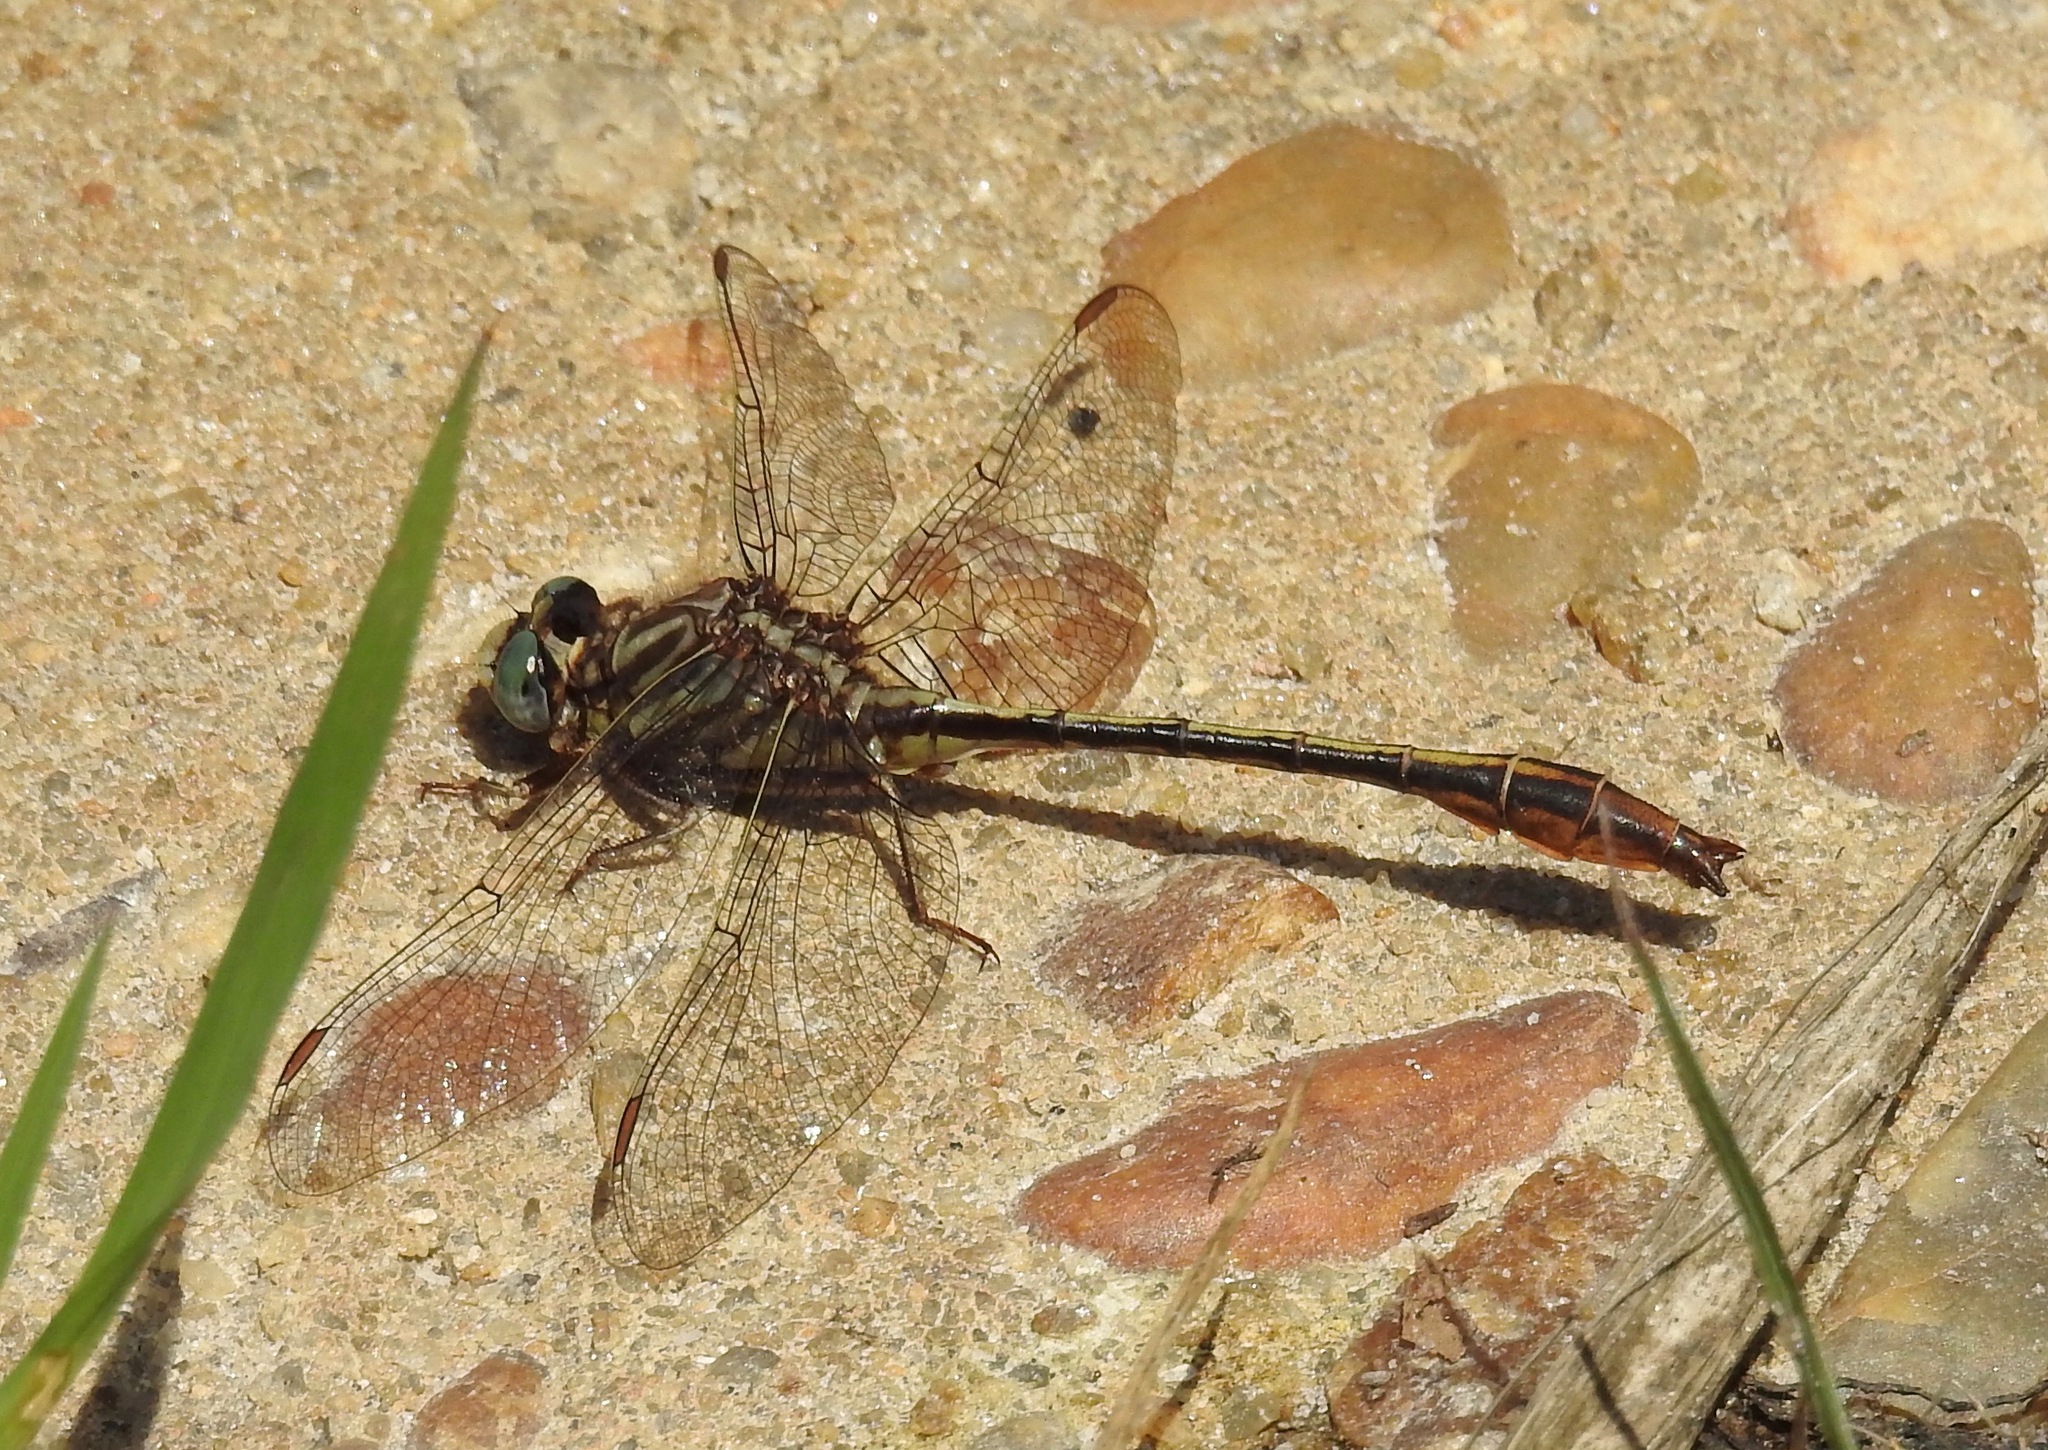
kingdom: Animalia
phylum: Arthropoda
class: Insecta
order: Odonata
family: Gomphidae
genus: Phanogomphus
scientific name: Phanogomphus minutus
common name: Cypress clubtail
